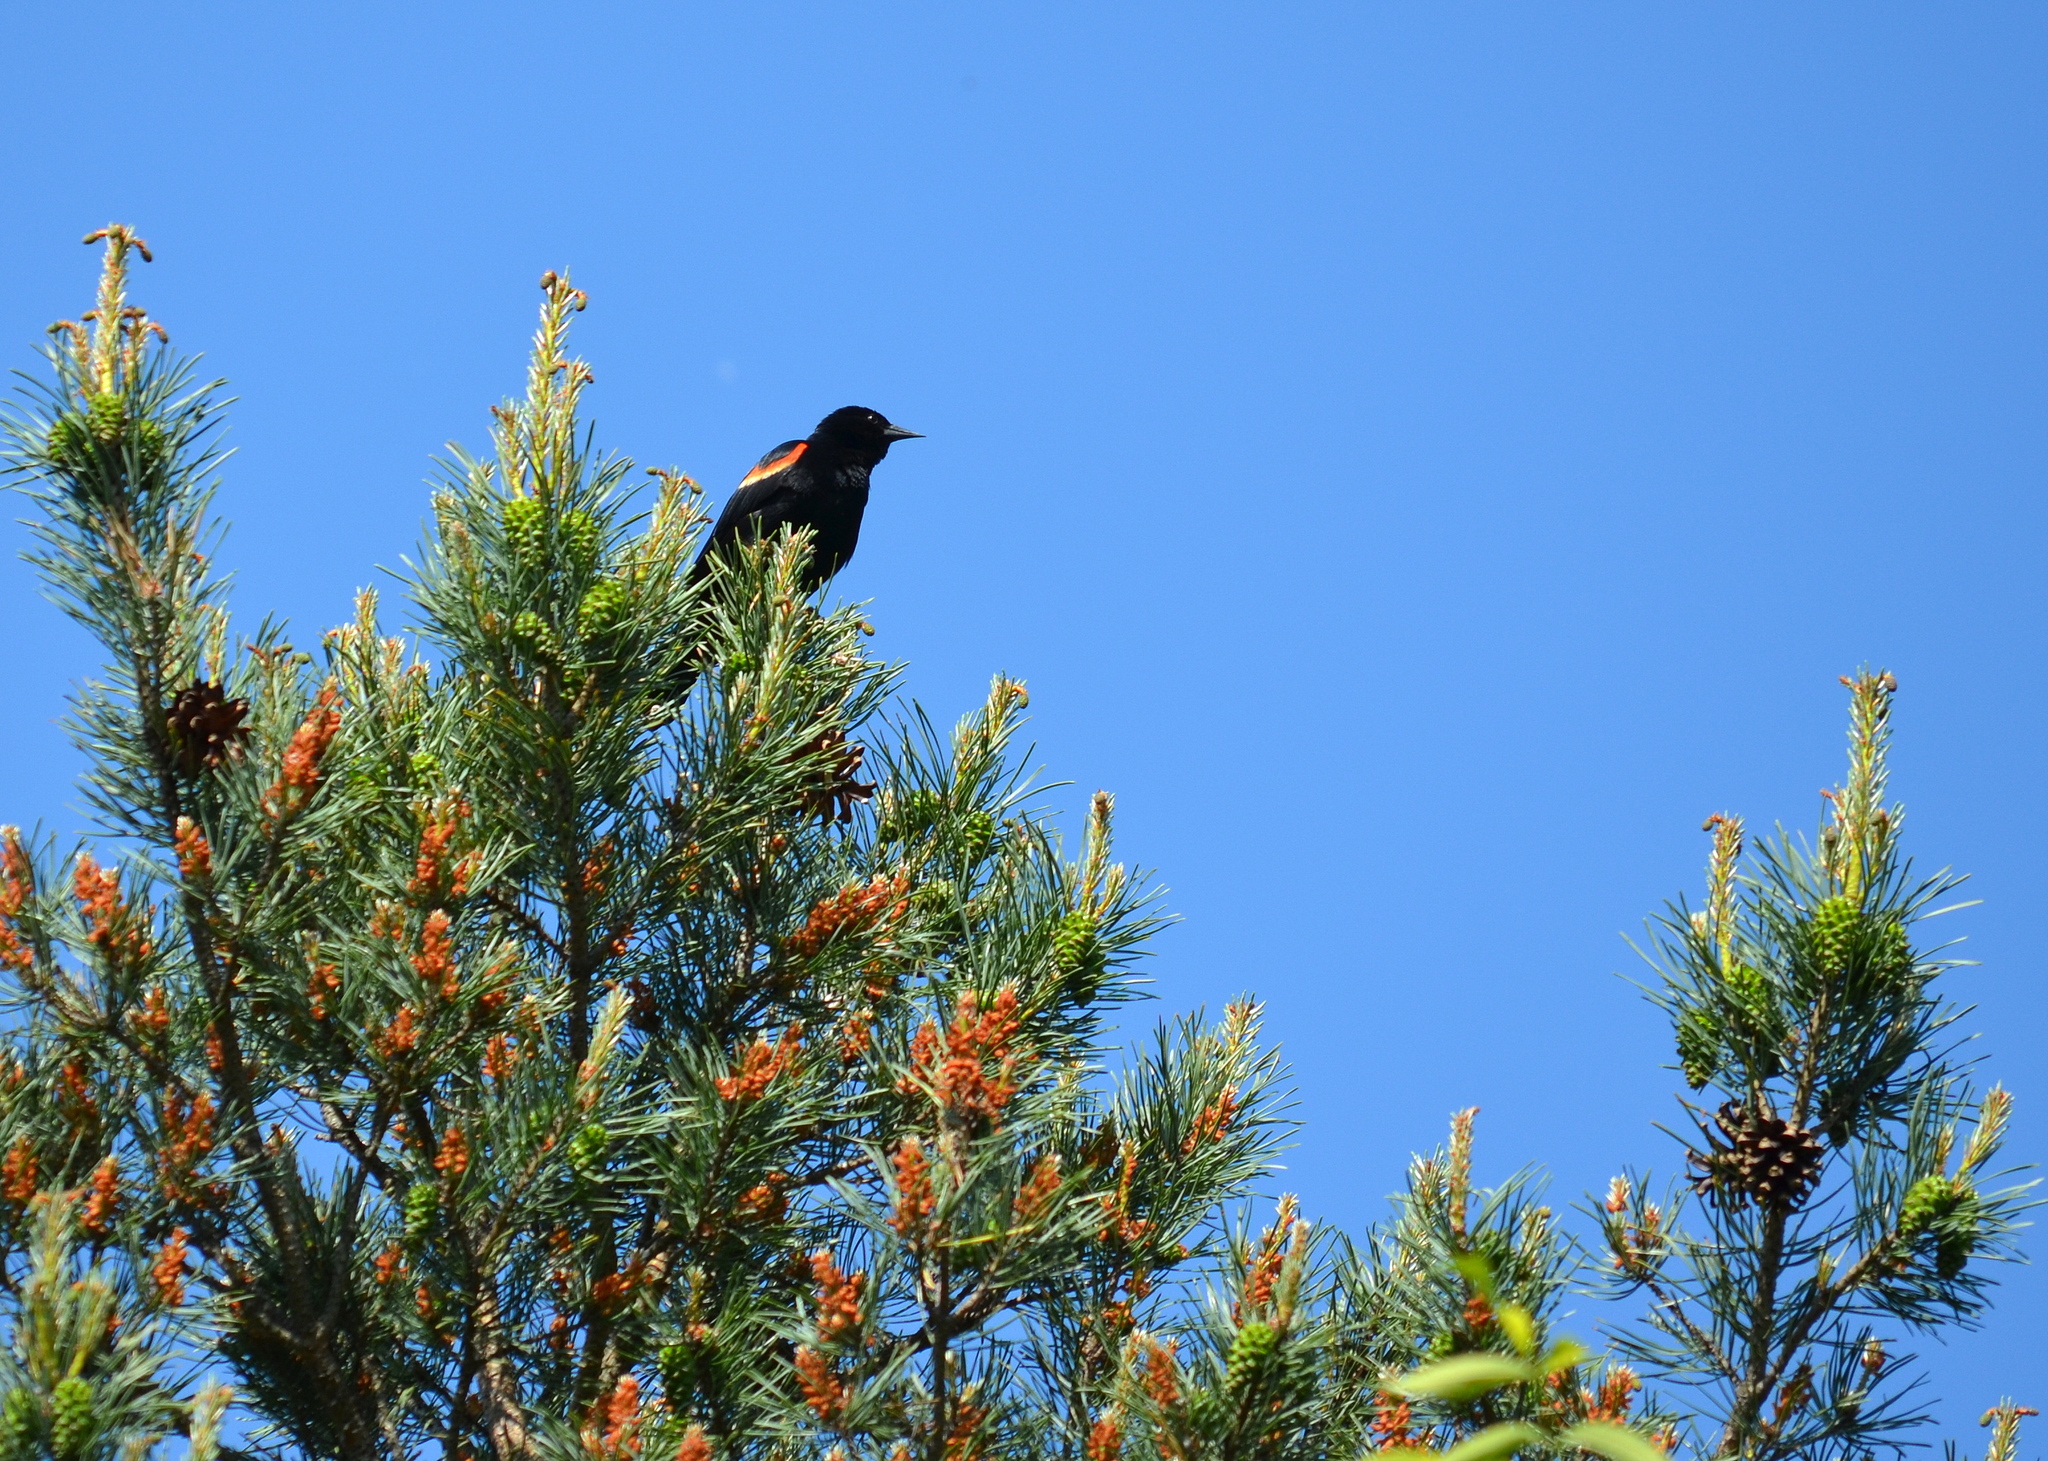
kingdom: Animalia
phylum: Chordata
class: Aves
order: Passeriformes
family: Icteridae
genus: Agelaius
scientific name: Agelaius phoeniceus
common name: Red-winged blackbird
